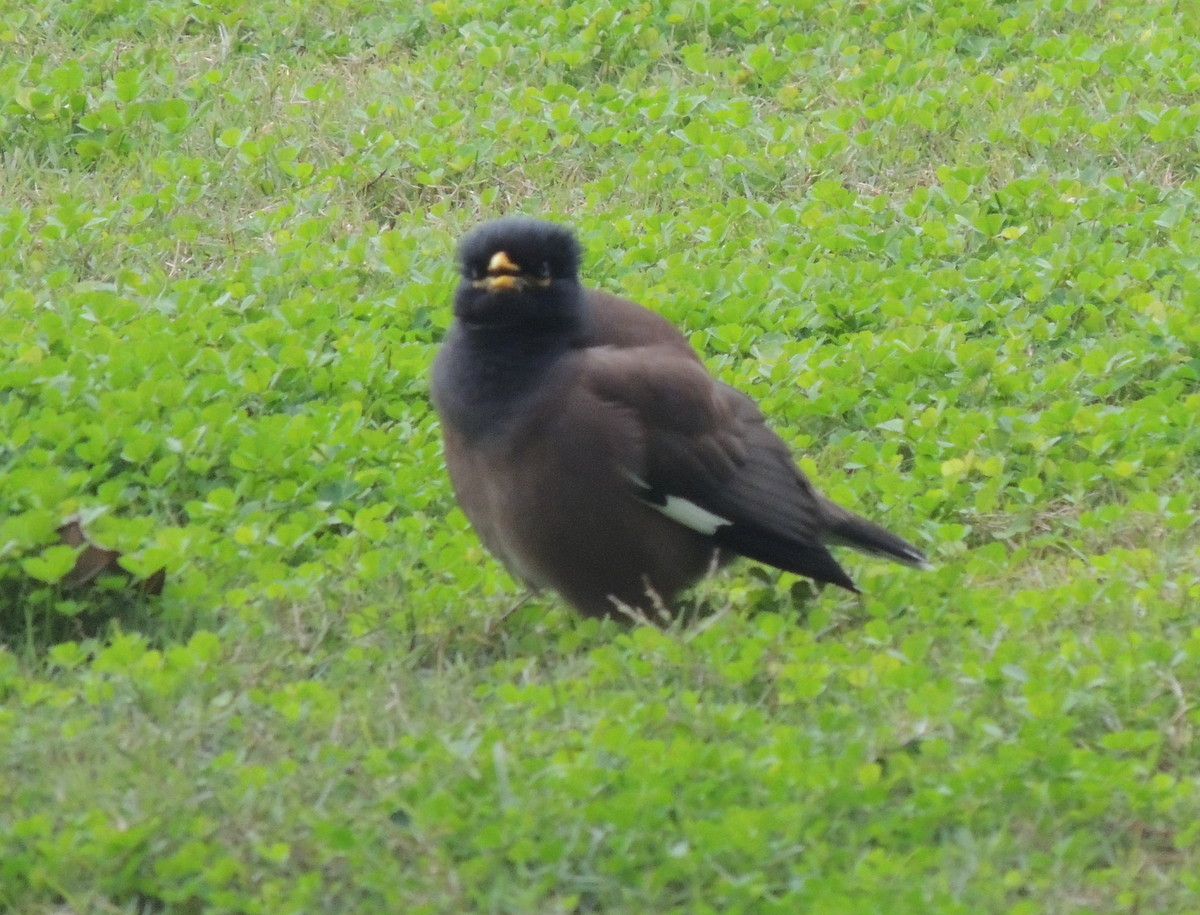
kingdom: Animalia
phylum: Chordata
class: Aves
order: Passeriformes
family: Sturnidae
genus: Acridotheres
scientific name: Acridotheres tristis
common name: Common myna
